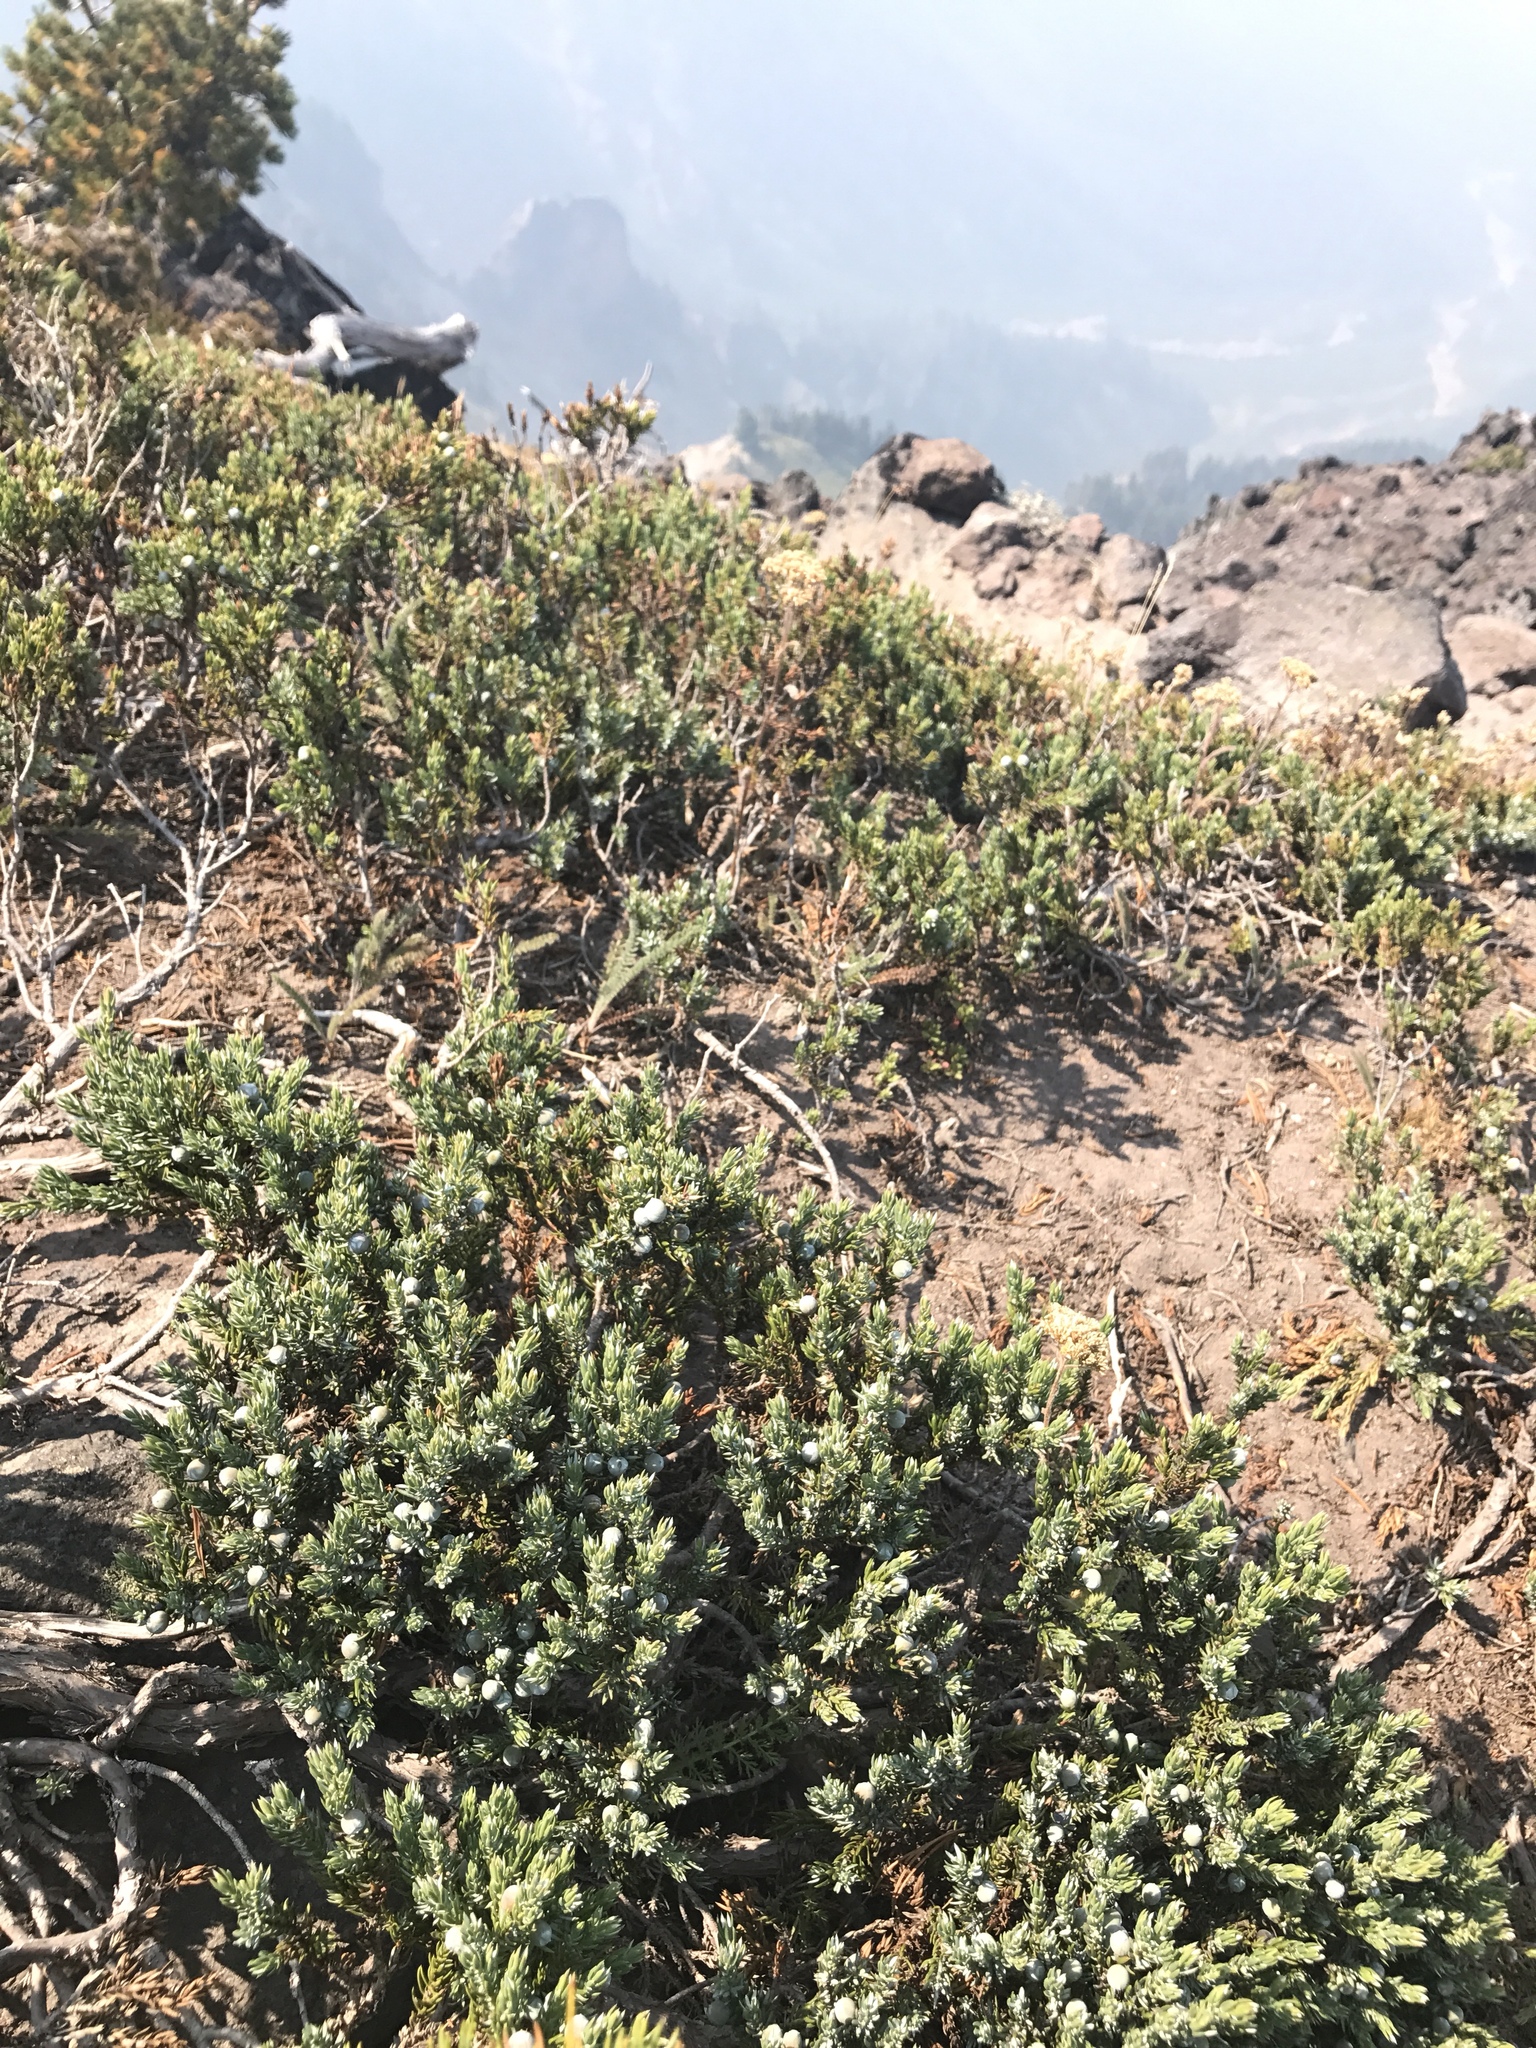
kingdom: Plantae
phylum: Tracheophyta
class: Pinopsida
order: Pinales
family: Cupressaceae
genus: Juniperus
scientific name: Juniperus communis
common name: Common juniper
